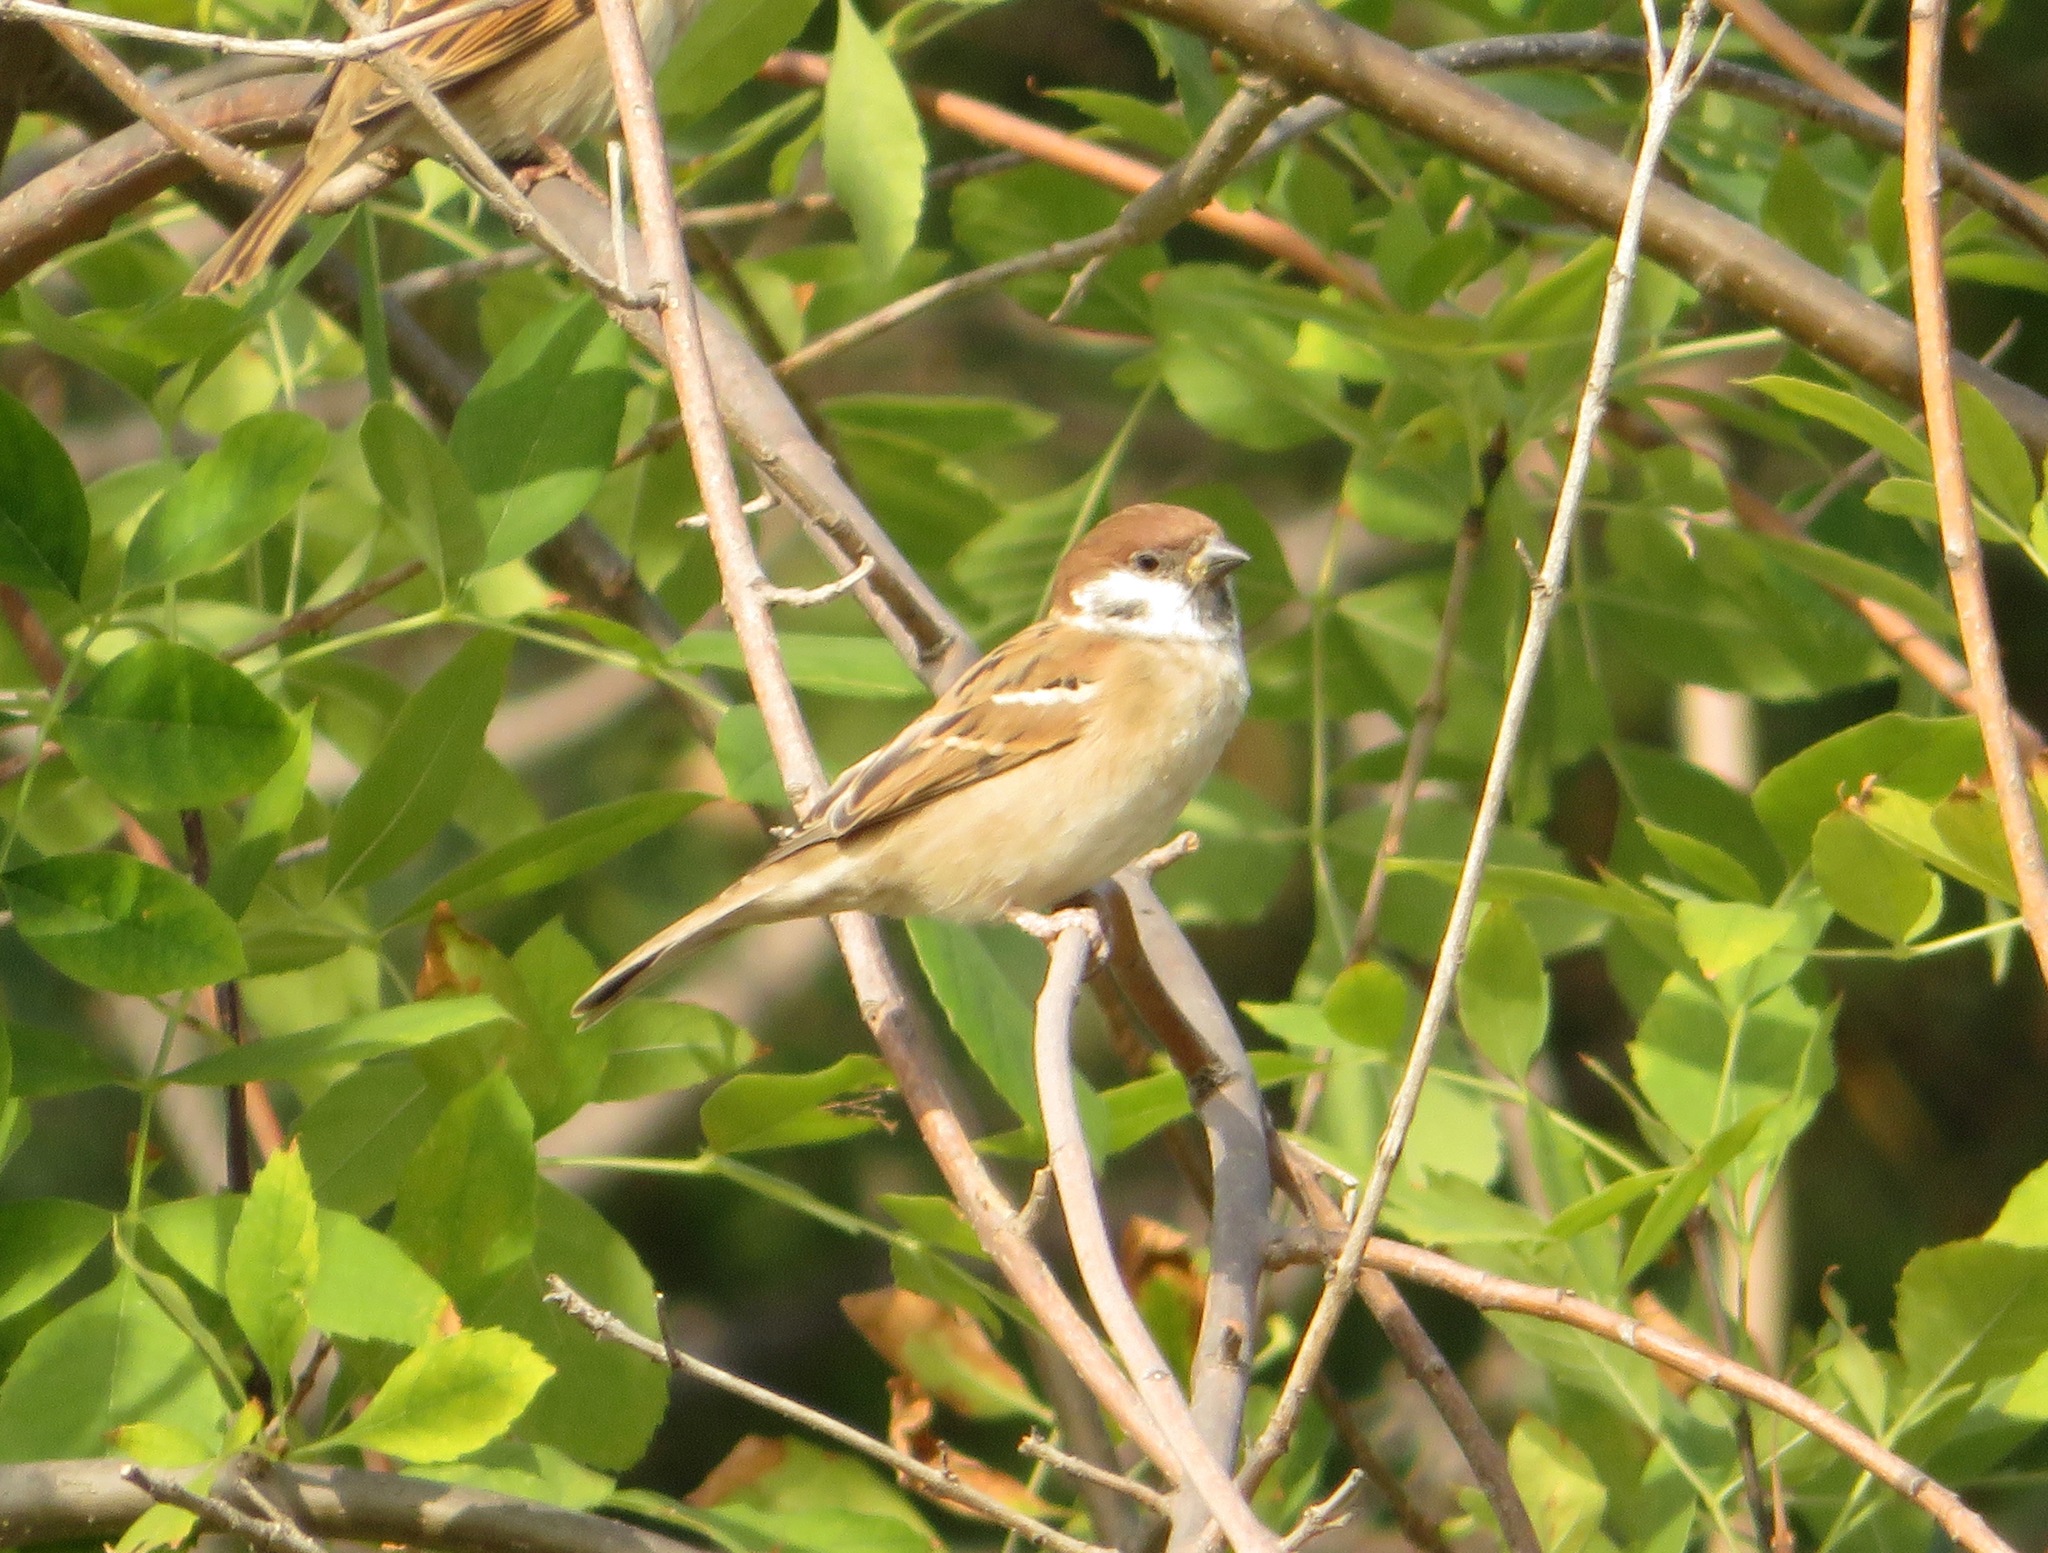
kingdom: Animalia
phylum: Chordata
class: Aves
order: Passeriformes
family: Passeridae
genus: Passer
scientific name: Passer montanus
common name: Eurasian tree sparrow
